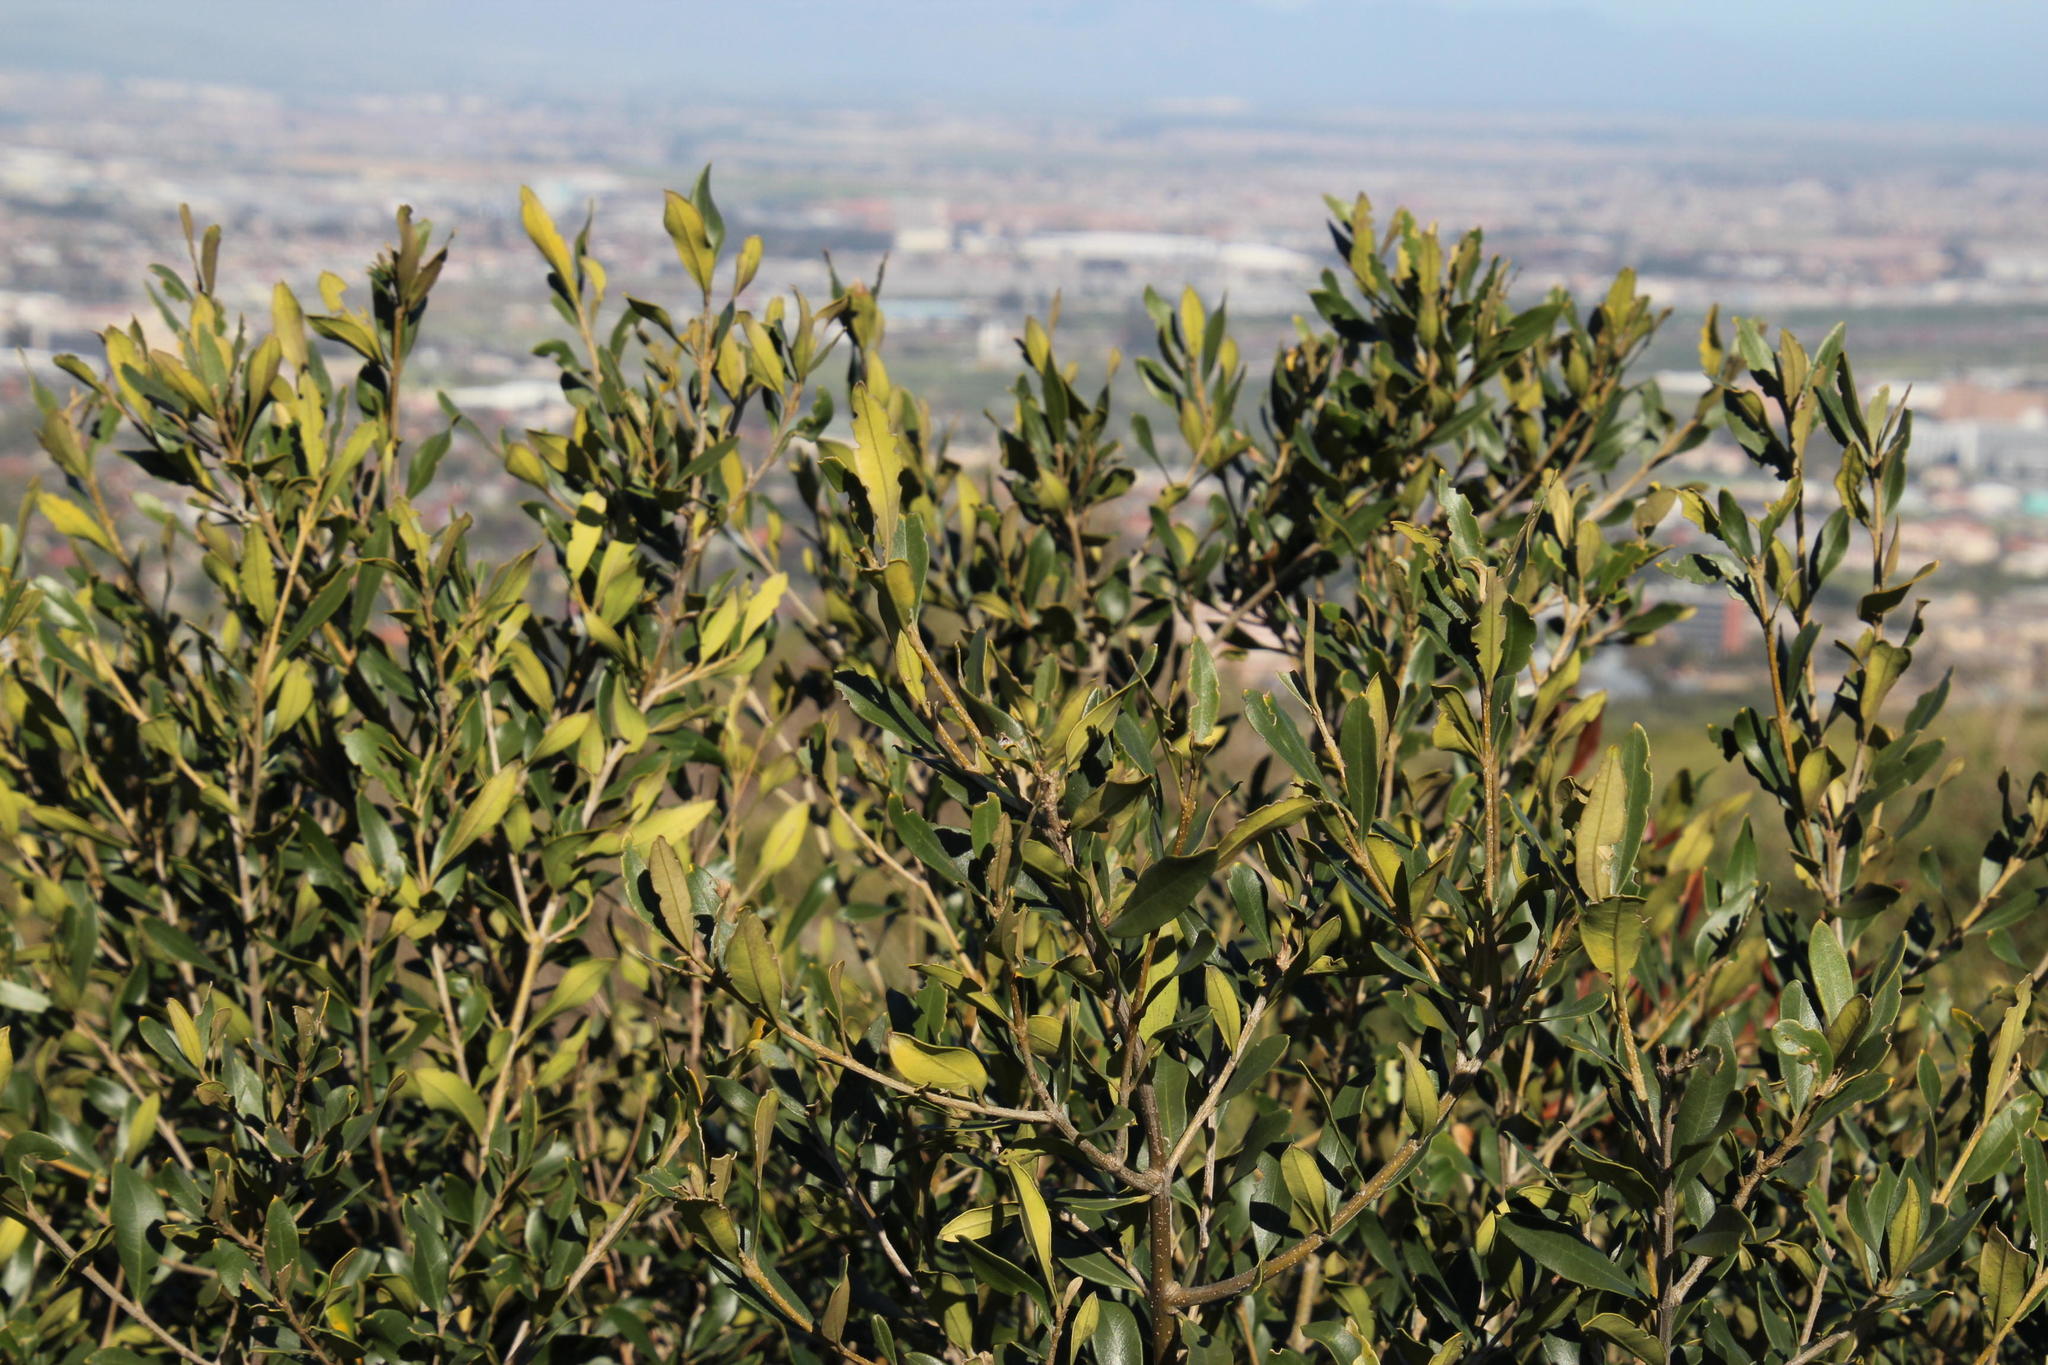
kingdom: Plantae
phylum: Tracheophyta
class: Magnoliopsida
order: Malpighiales
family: Achariaceae
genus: Kiggelaria
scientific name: Kiggelaria africana
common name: Wild peach
